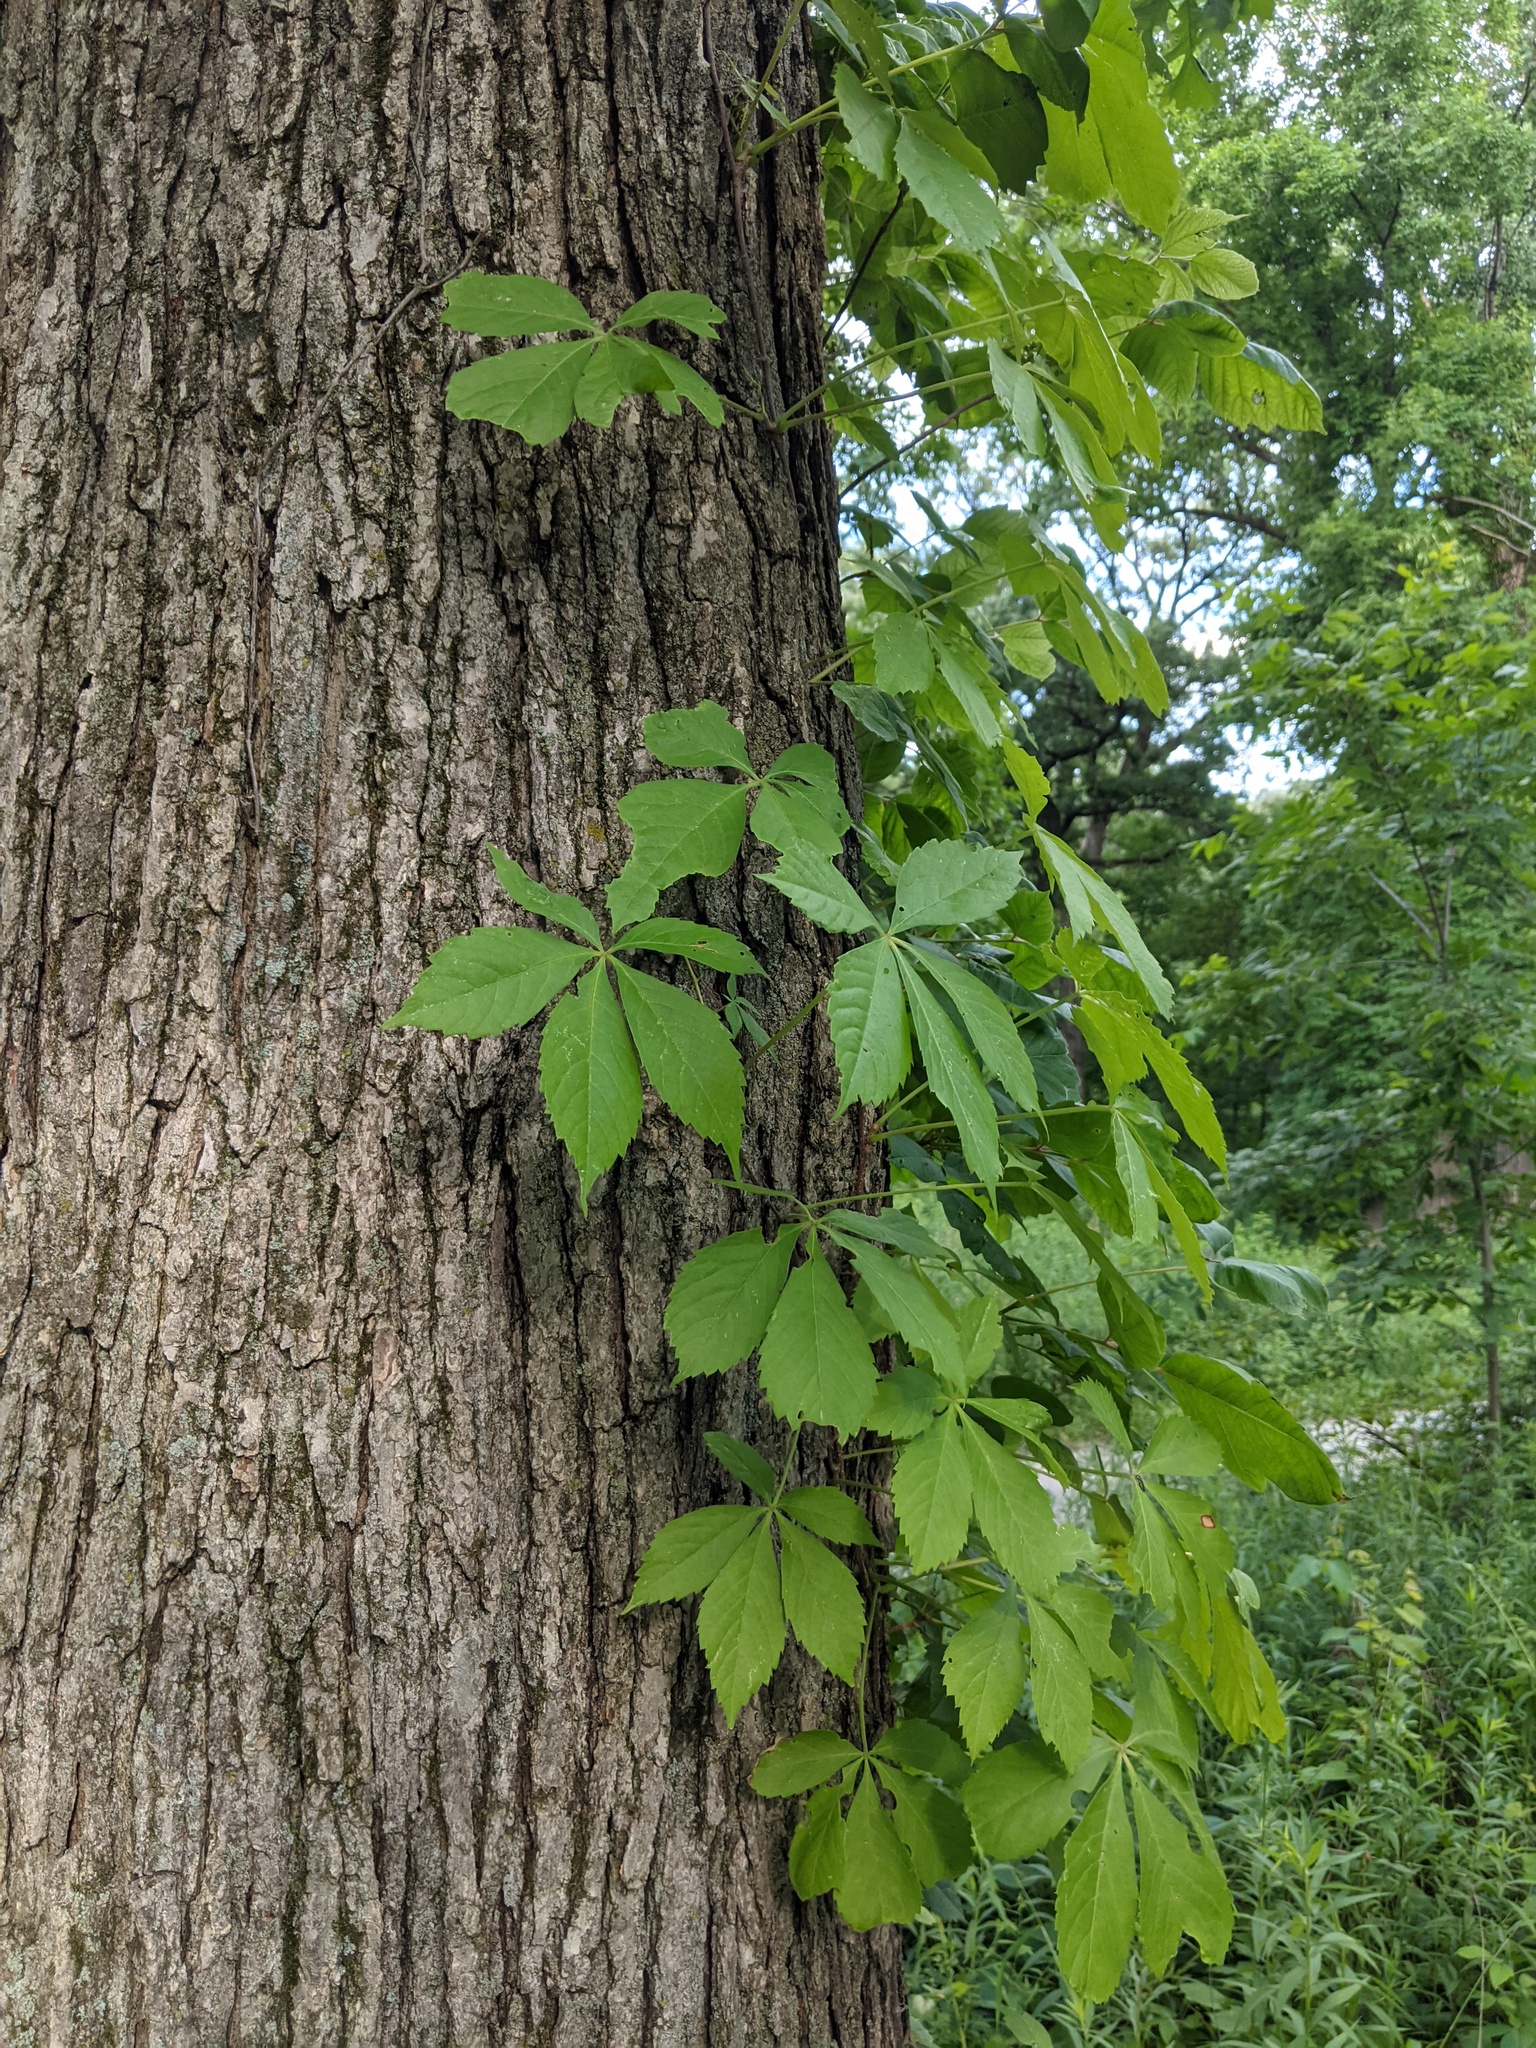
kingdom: Plantae
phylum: Tracheophyta
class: Magnoliopsida
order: Vitales
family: Vitaceae
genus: Parthenocissus
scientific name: Parthenocissus quinquefolia
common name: Virginia-creeper
